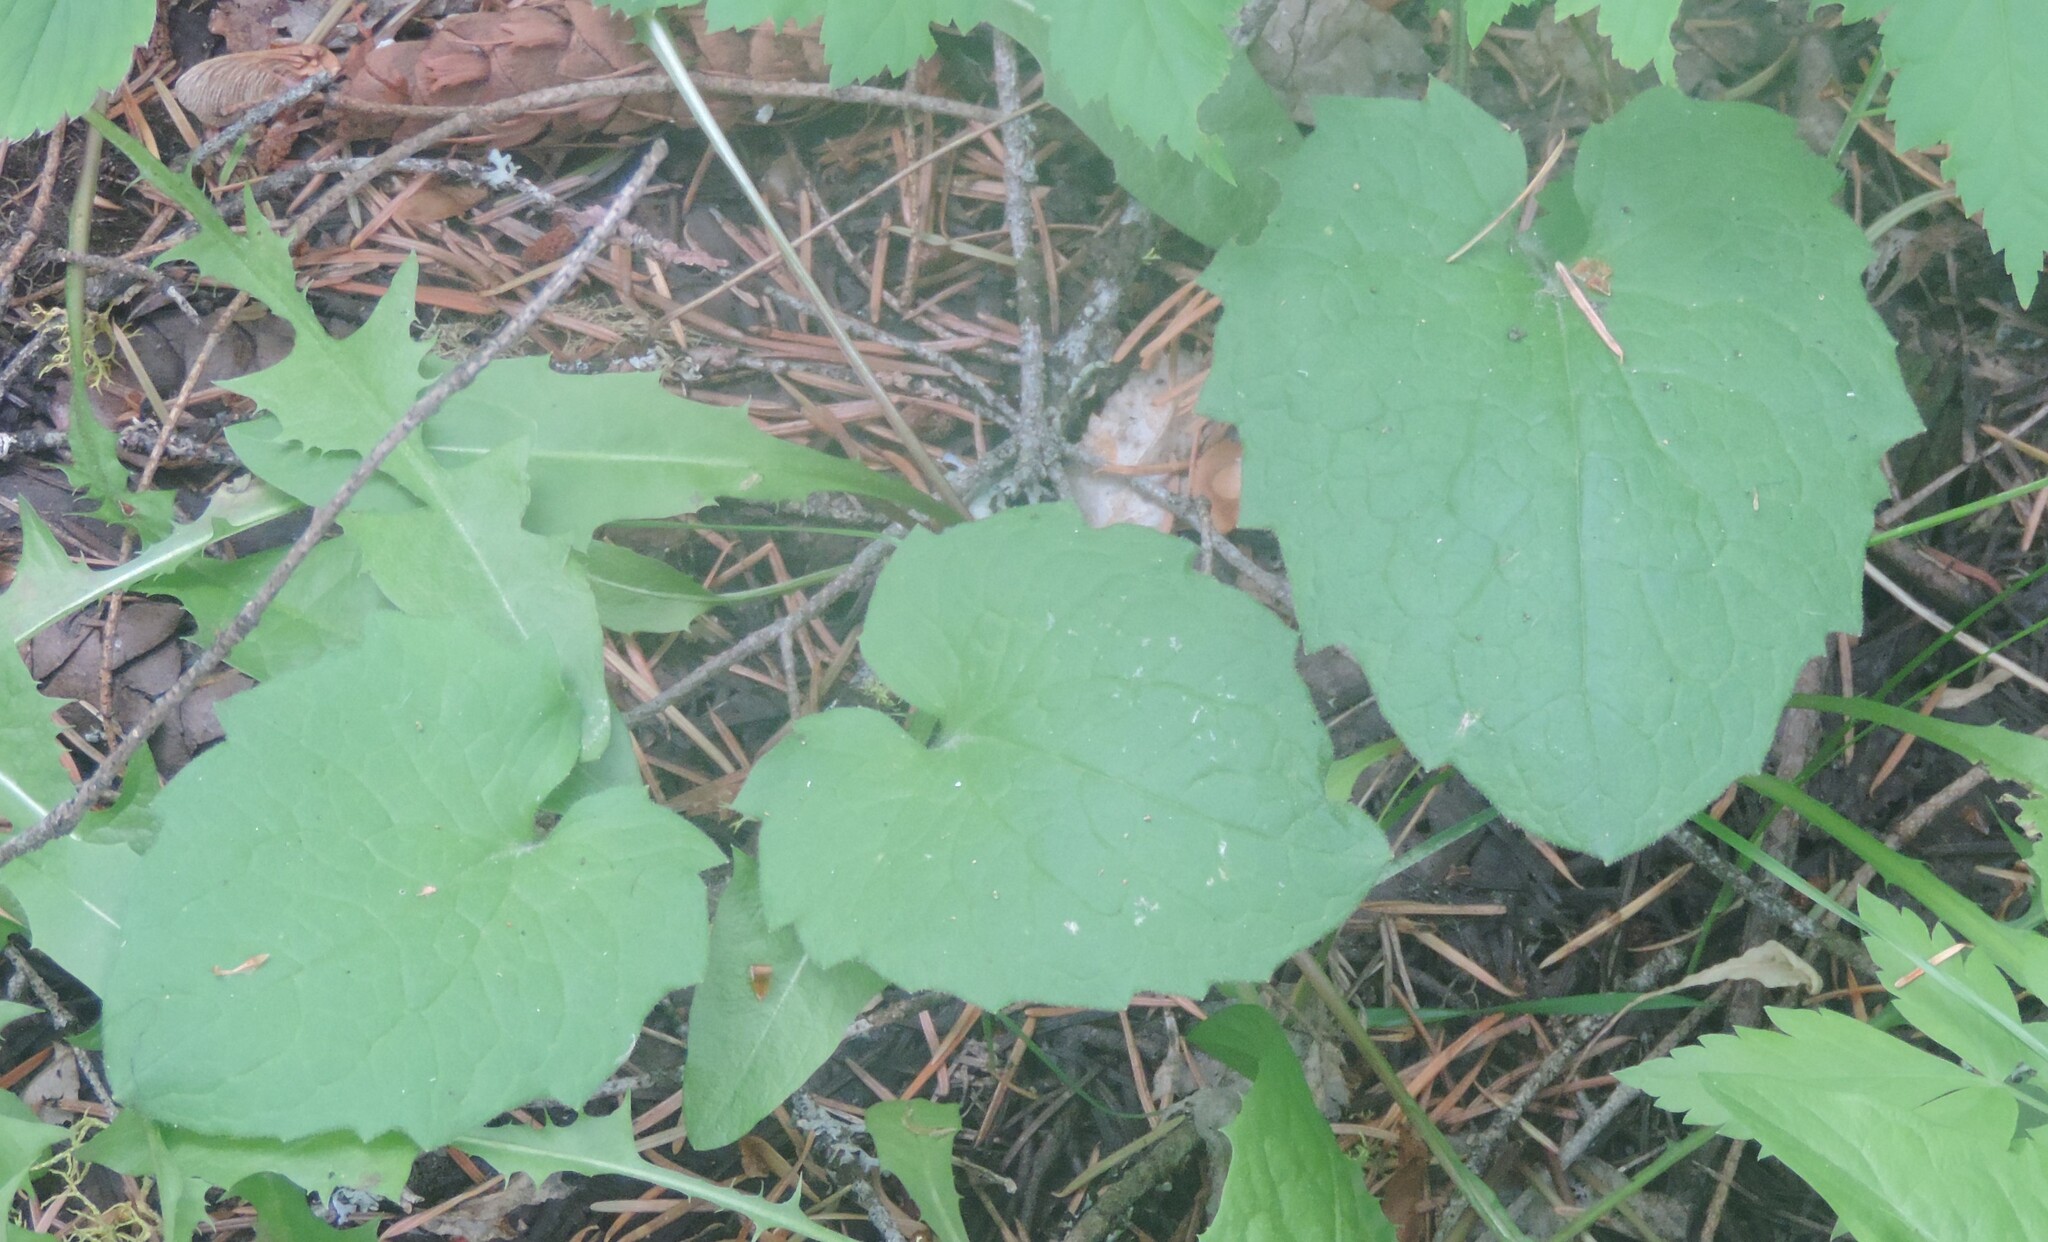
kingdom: Plantae
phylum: Tracheophyta
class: Magnoliopsida
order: Asterales
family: Asteraceae
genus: Arnica
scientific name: Arnica cordifolia
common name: Heart-leaf arnica
